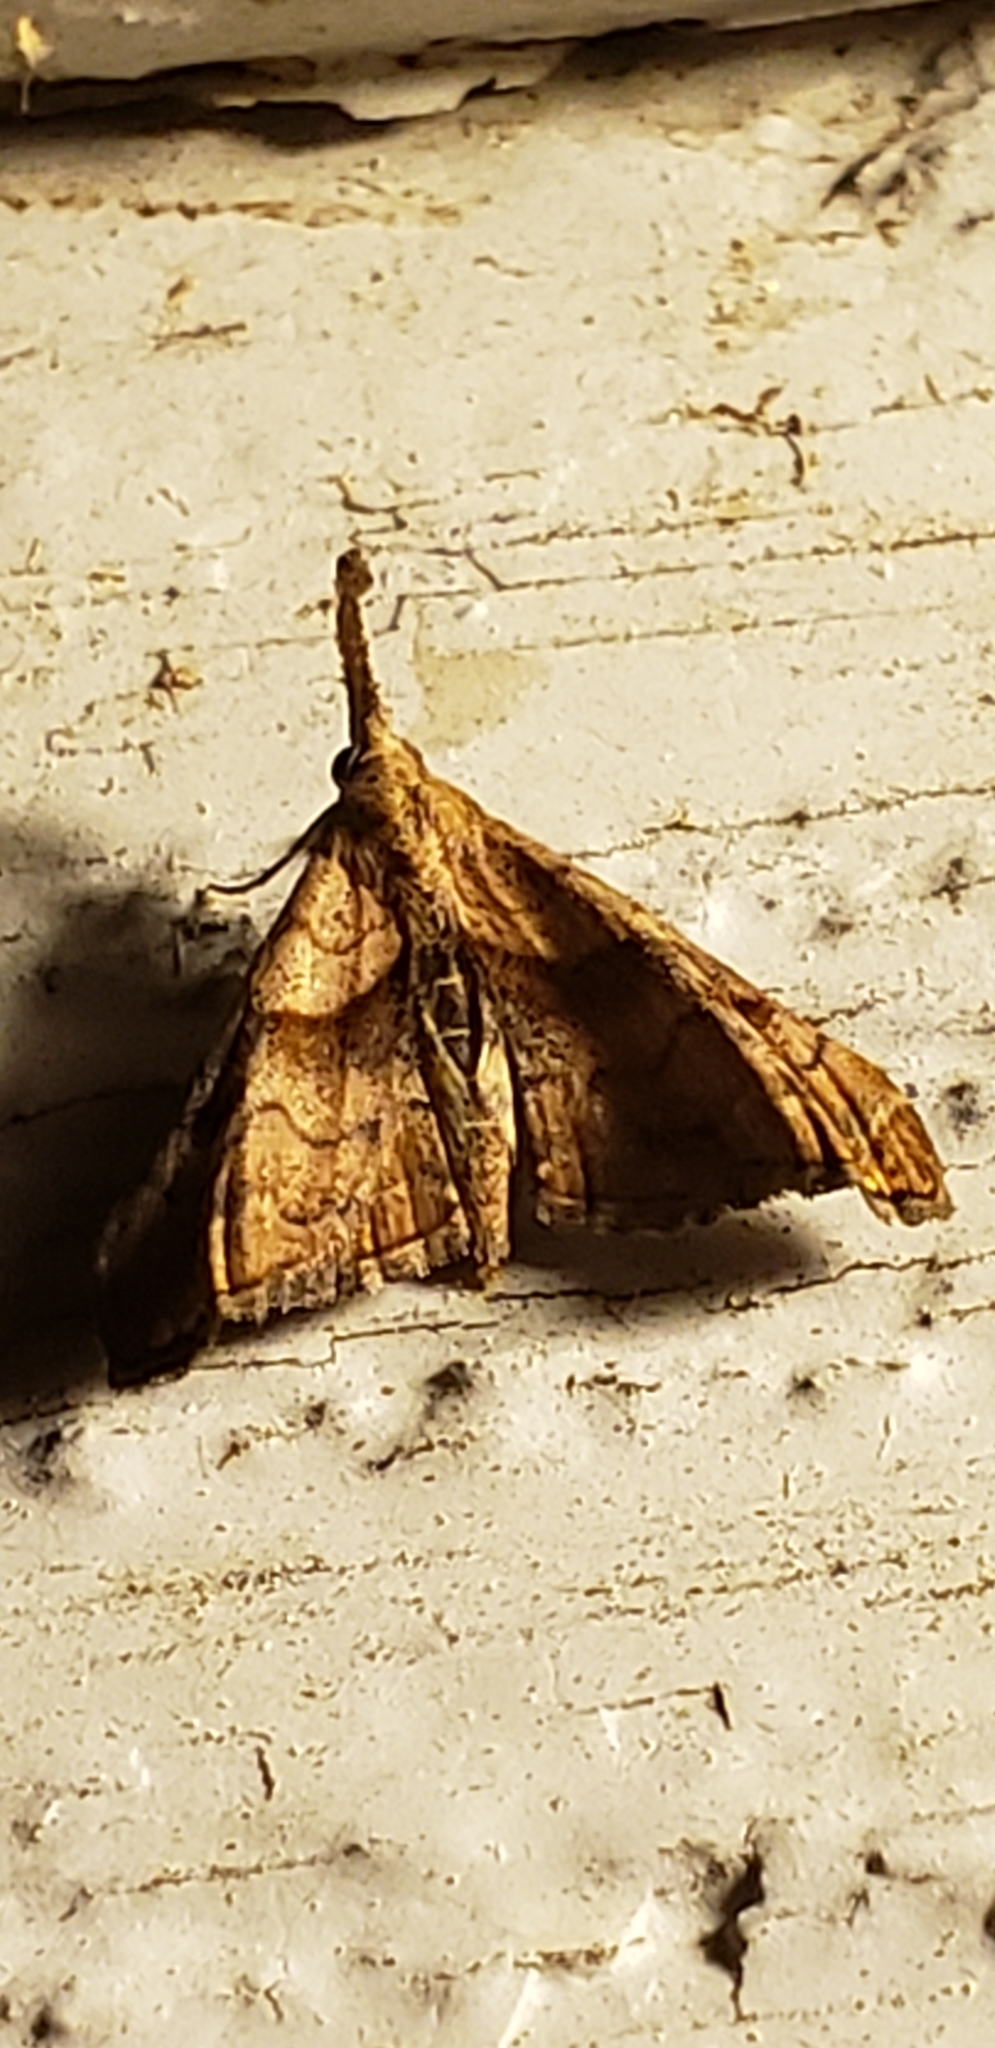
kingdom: Animalia
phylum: Arthropoda
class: Insecta
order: Lepidoptera
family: Erebidae
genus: Palthis
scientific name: Palthis angulalis
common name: Dark-spotted palthis moth
